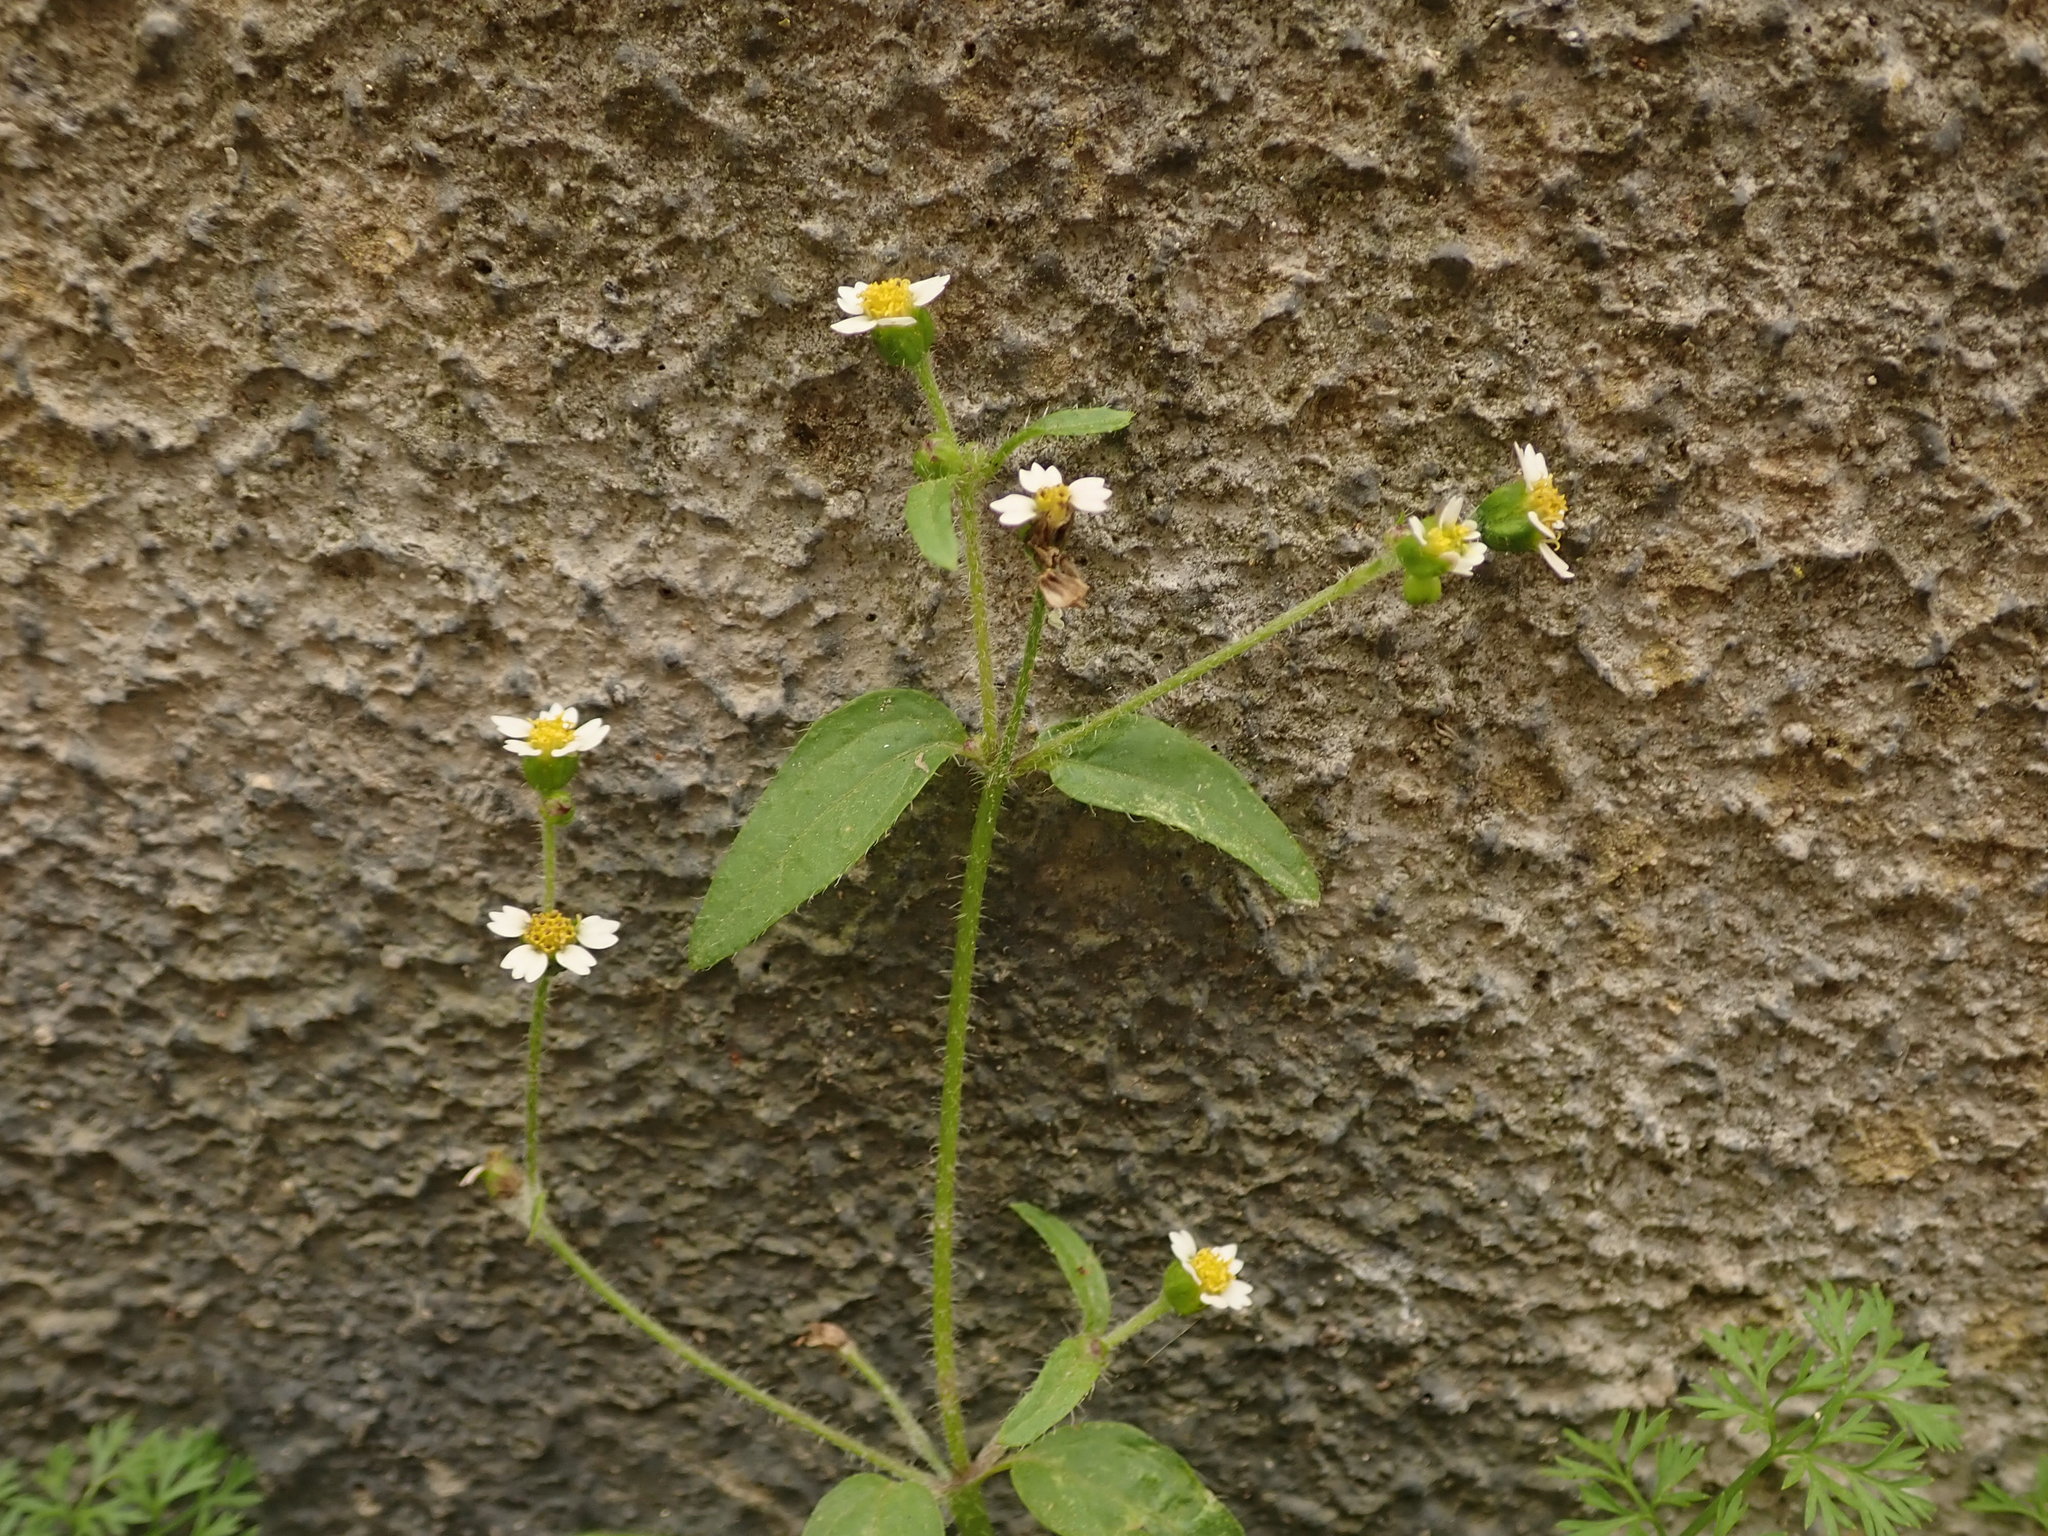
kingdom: Plantae
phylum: Tracheophyta
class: Magnoliopsida
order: Asterales
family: Asteraceae
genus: Galinsoga
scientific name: Galinsoga parviflora
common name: Gallant soldier
